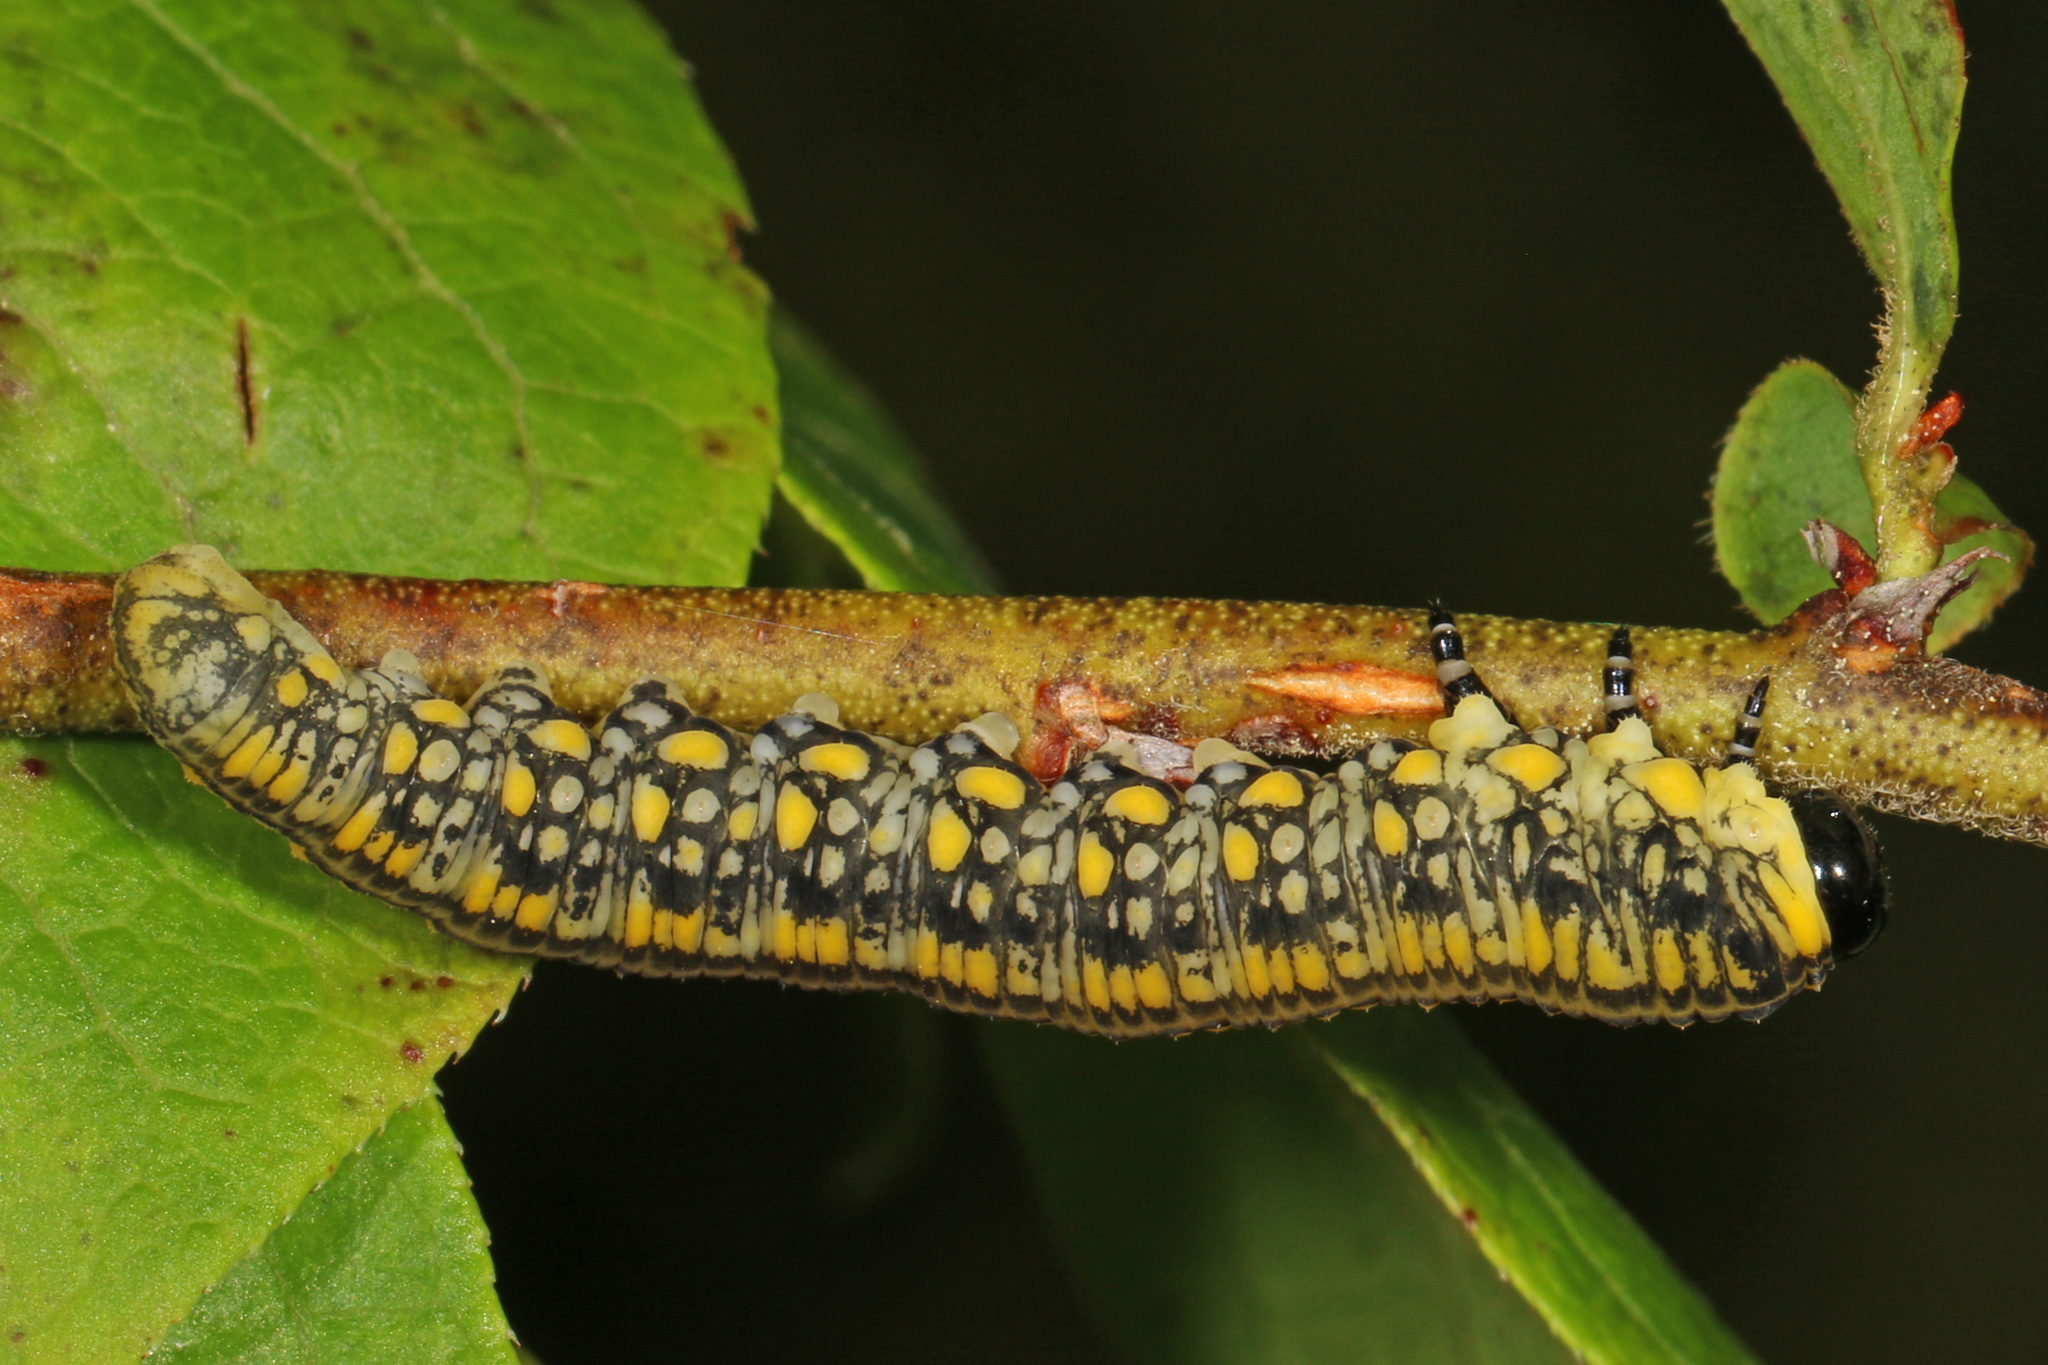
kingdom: Animalia
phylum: Arthropoda
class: Insecta
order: Hymenoptera
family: Diprionidae
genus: Diprion
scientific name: Diprion similis
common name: Pine sawfly
